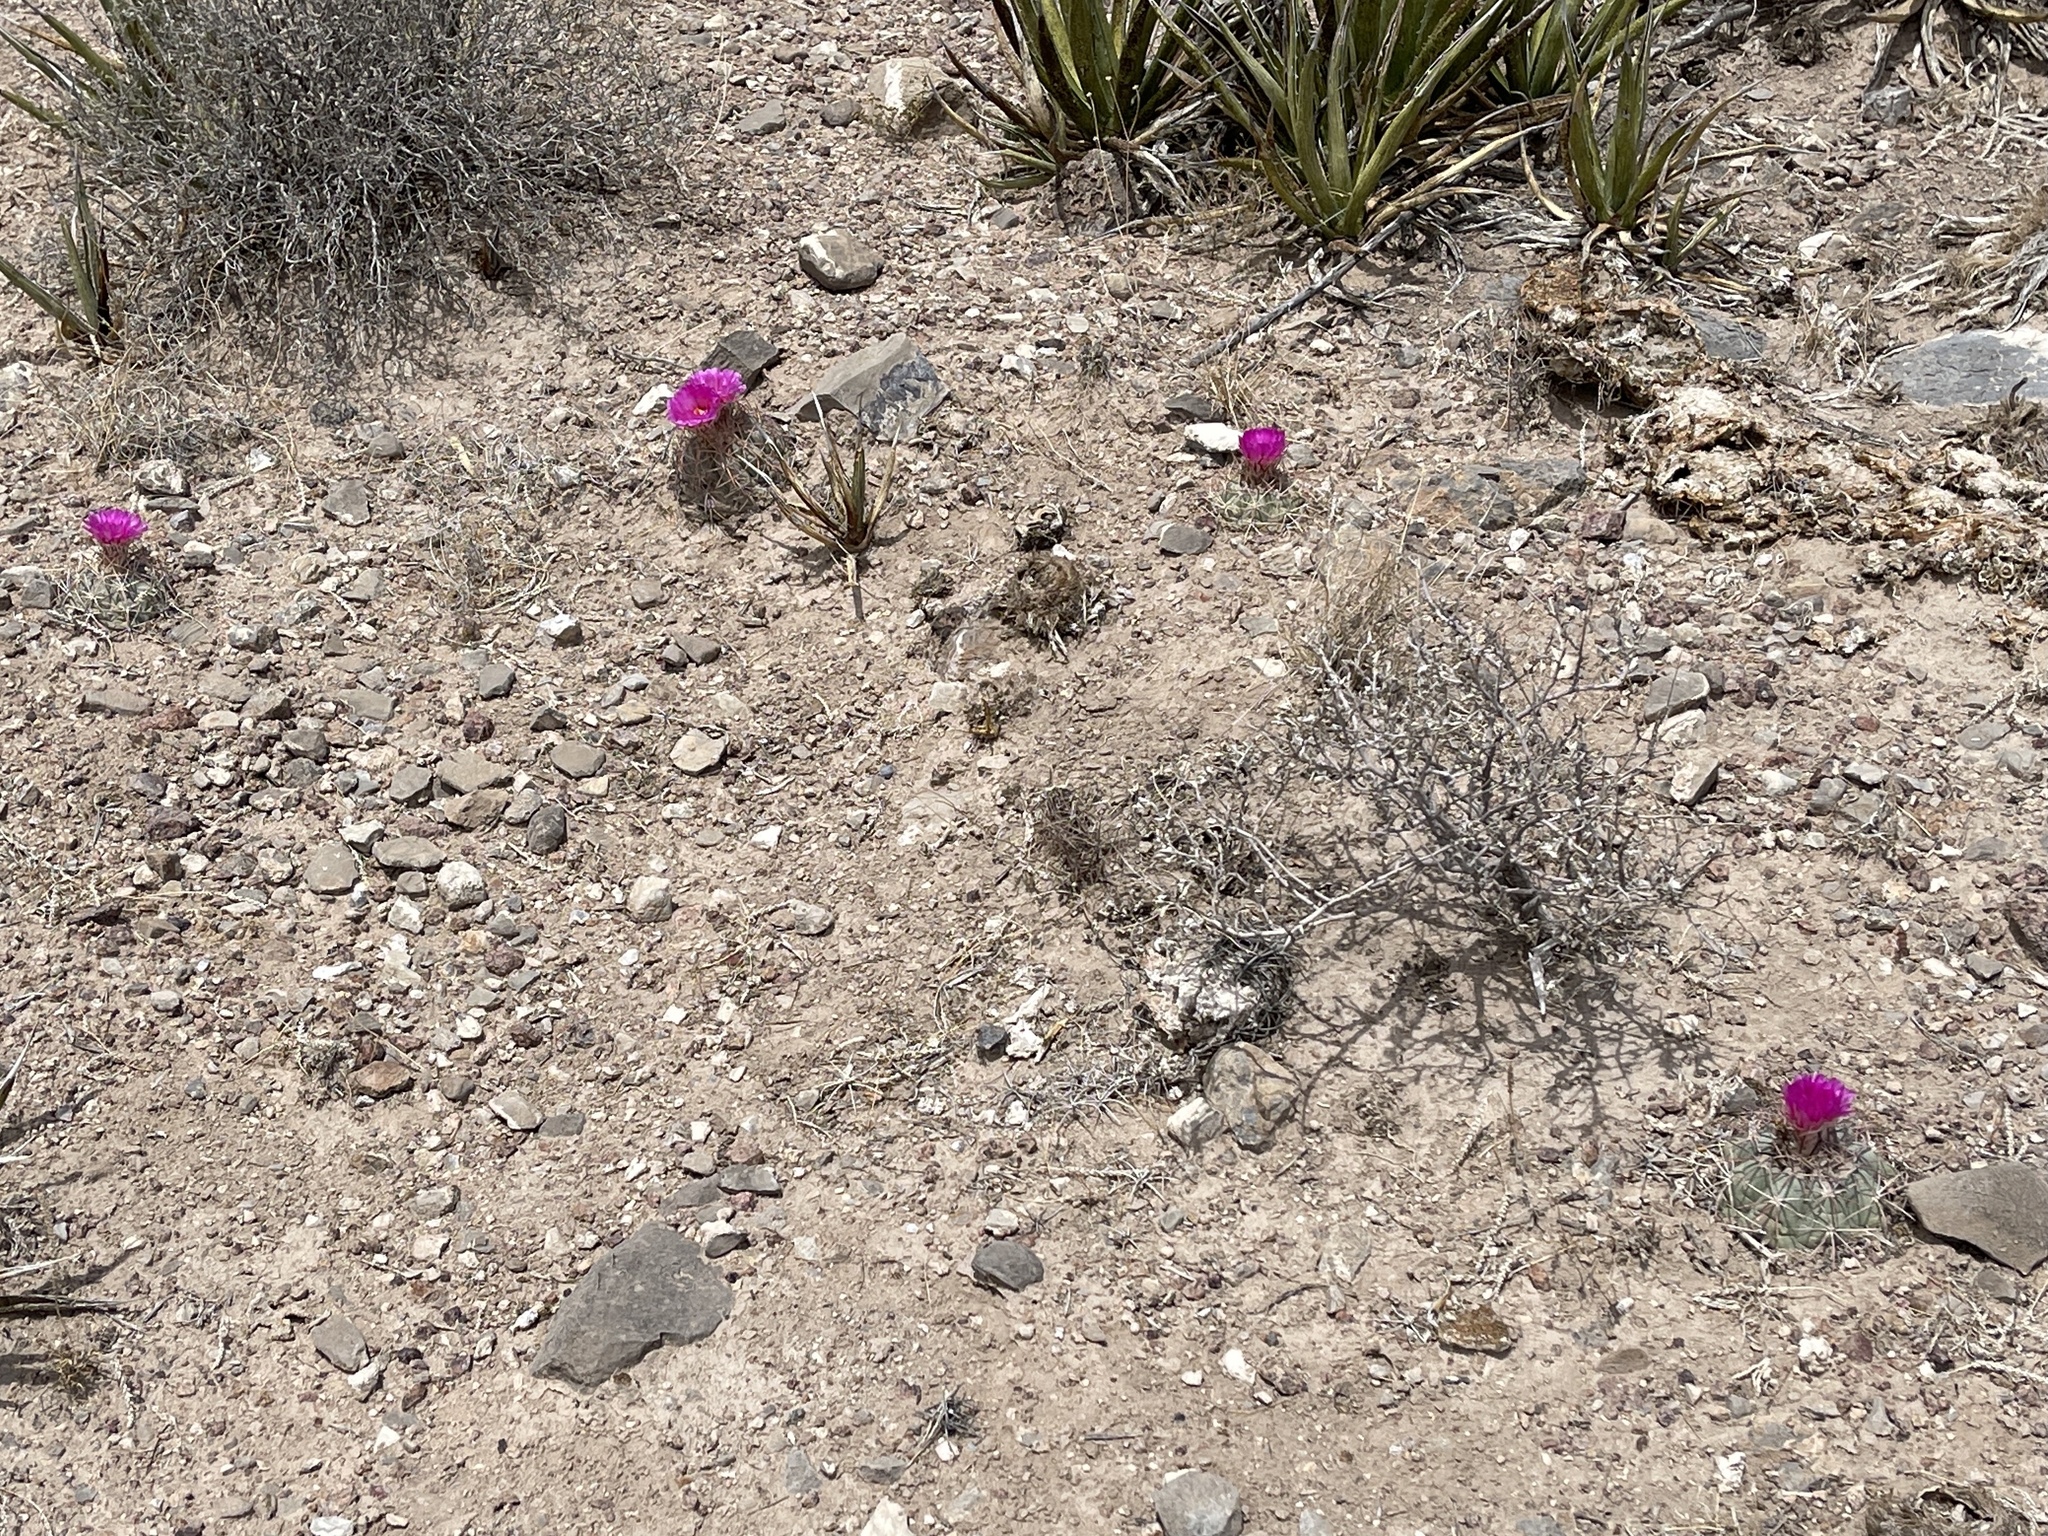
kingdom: Plantae
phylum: Tracheophyta
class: Magnoliopsida
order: Caryophyllales
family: Cactaceae
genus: Echinocactus
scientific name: Echinocactus horizonthalonius
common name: Devilshead
